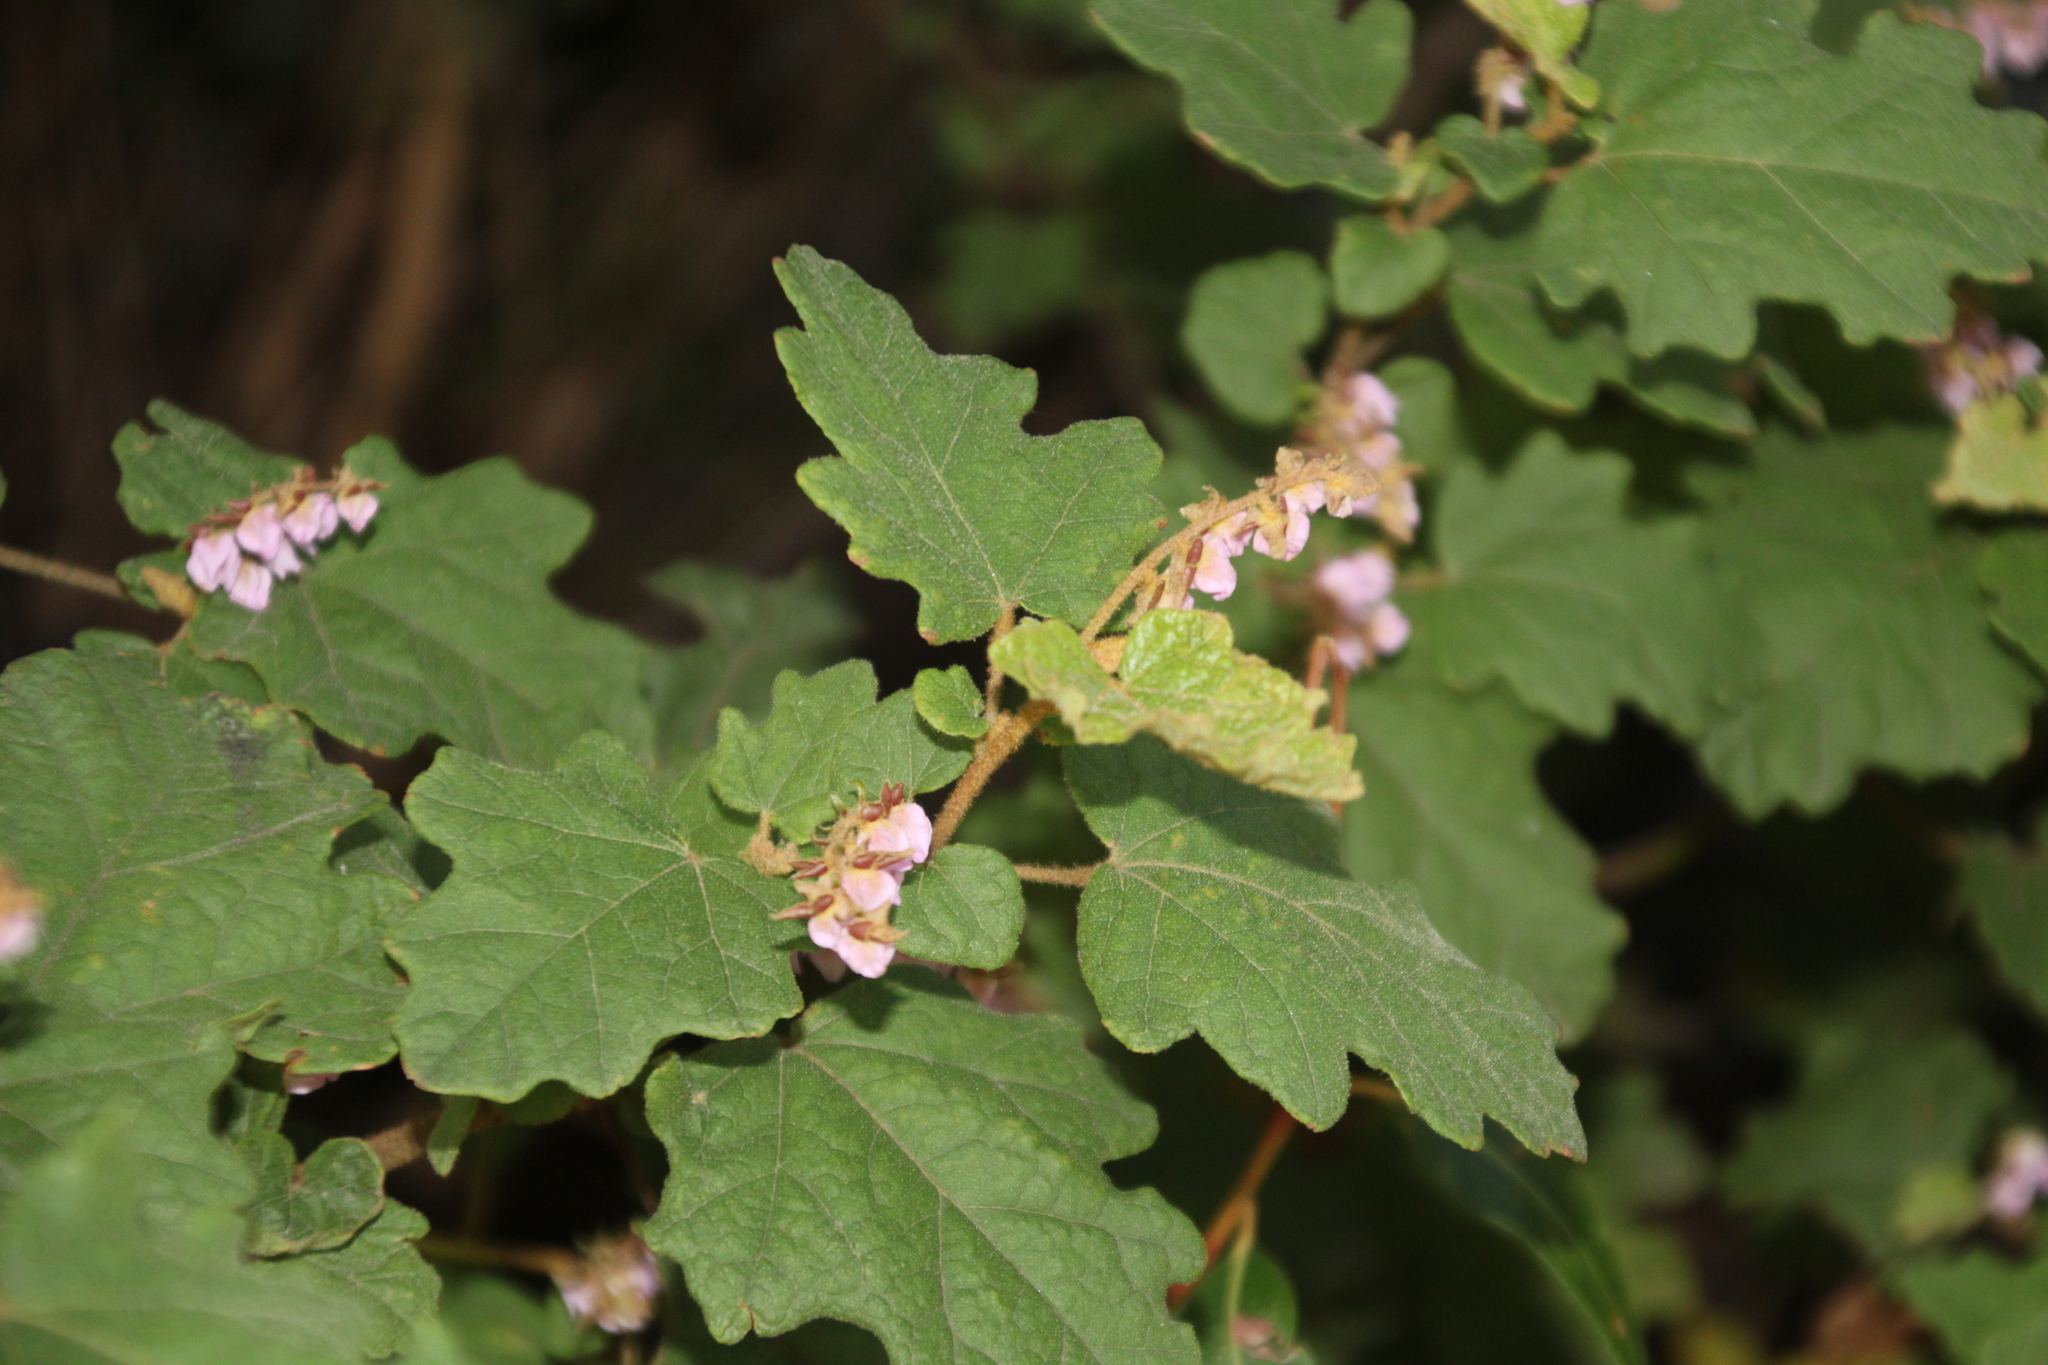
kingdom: Plantae
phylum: Tracheophyta
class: Magnoliopsida
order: Malvales
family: Malvaceae
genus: Thomasia
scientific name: Thomasia brachystachys
